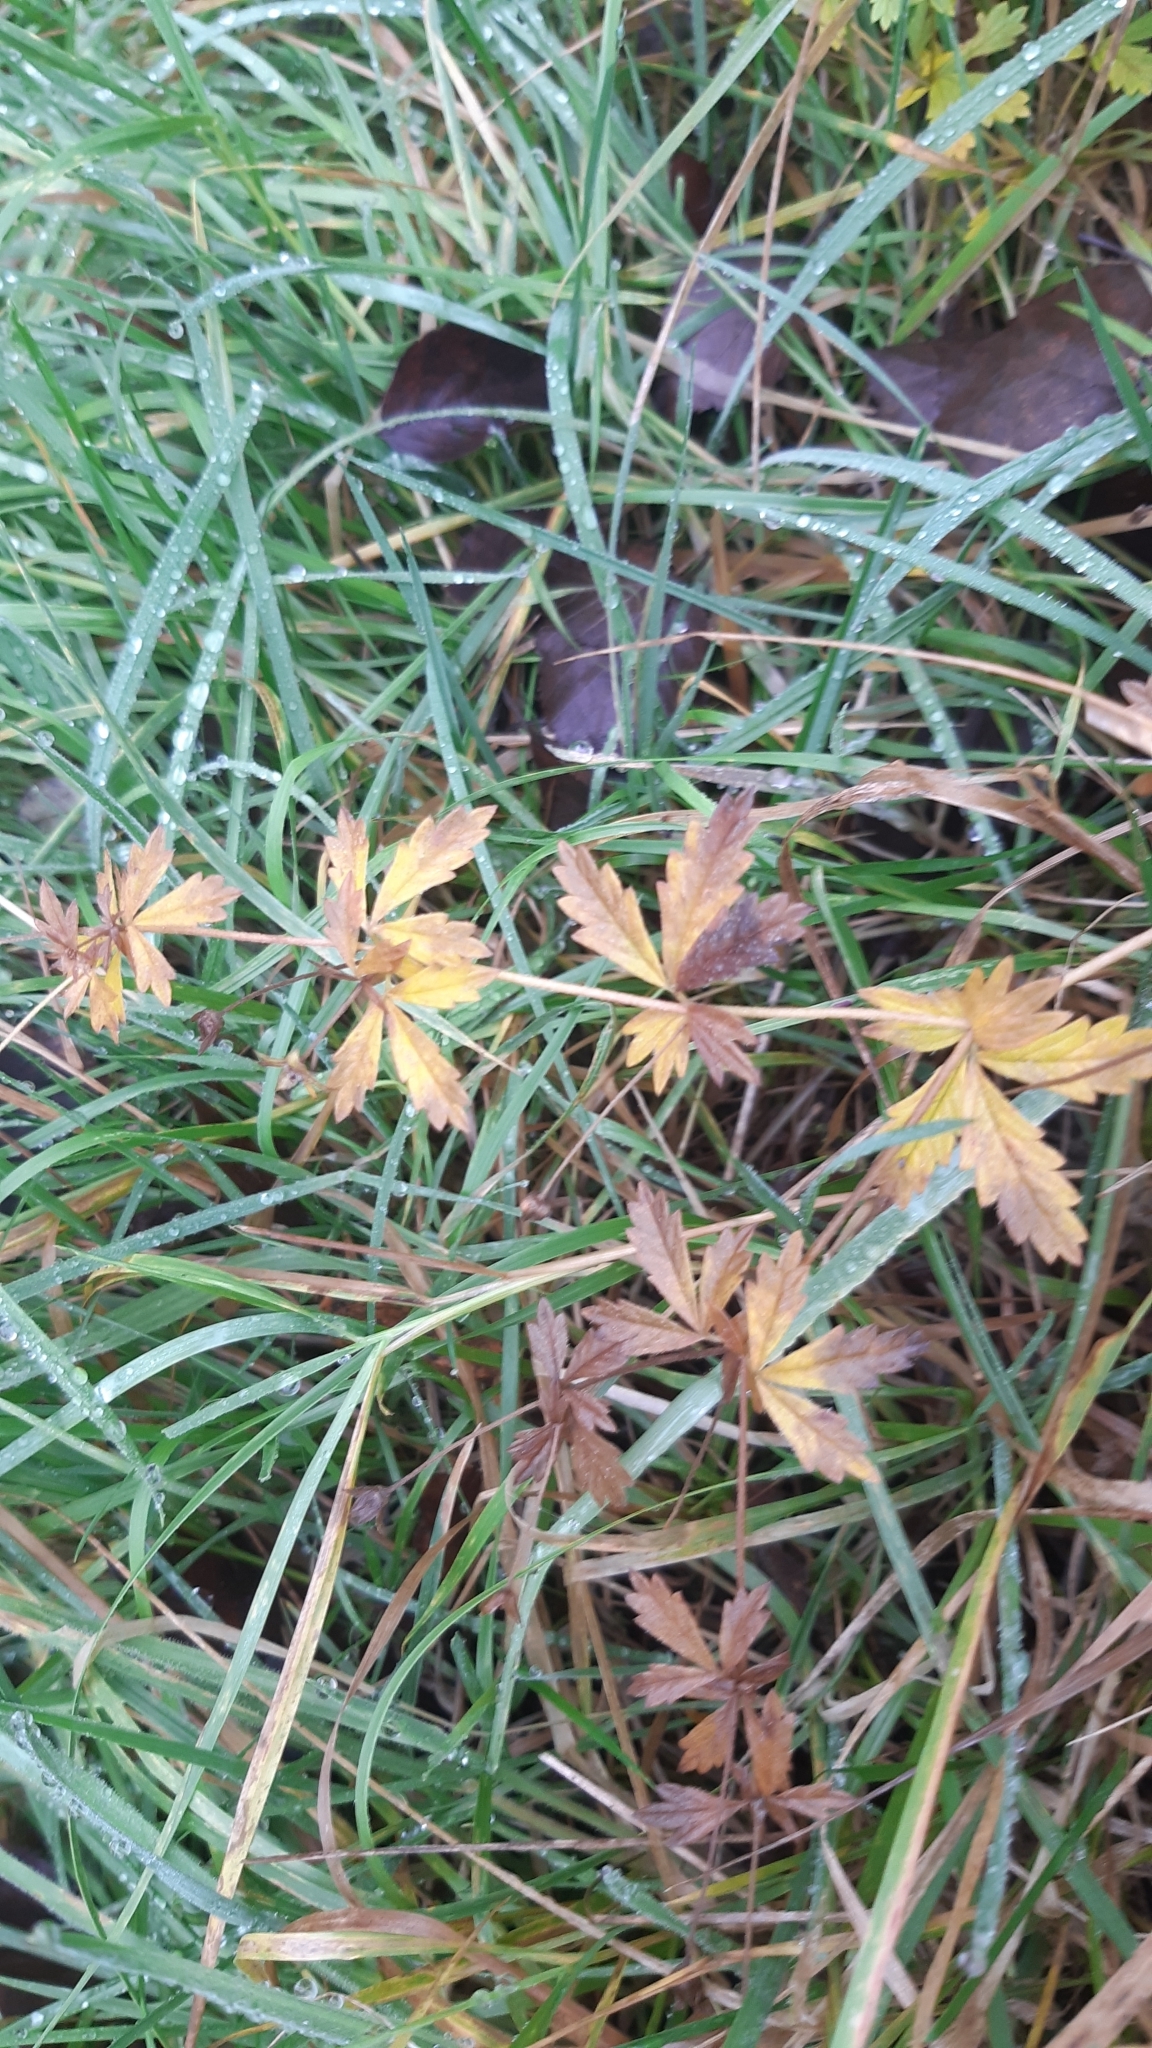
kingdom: Plantae
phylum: Tracheophyta
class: Magnoliopsida
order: Rosales
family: Rosaceae
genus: Potentilla
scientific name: Potentilla erecta
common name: Tormentil
